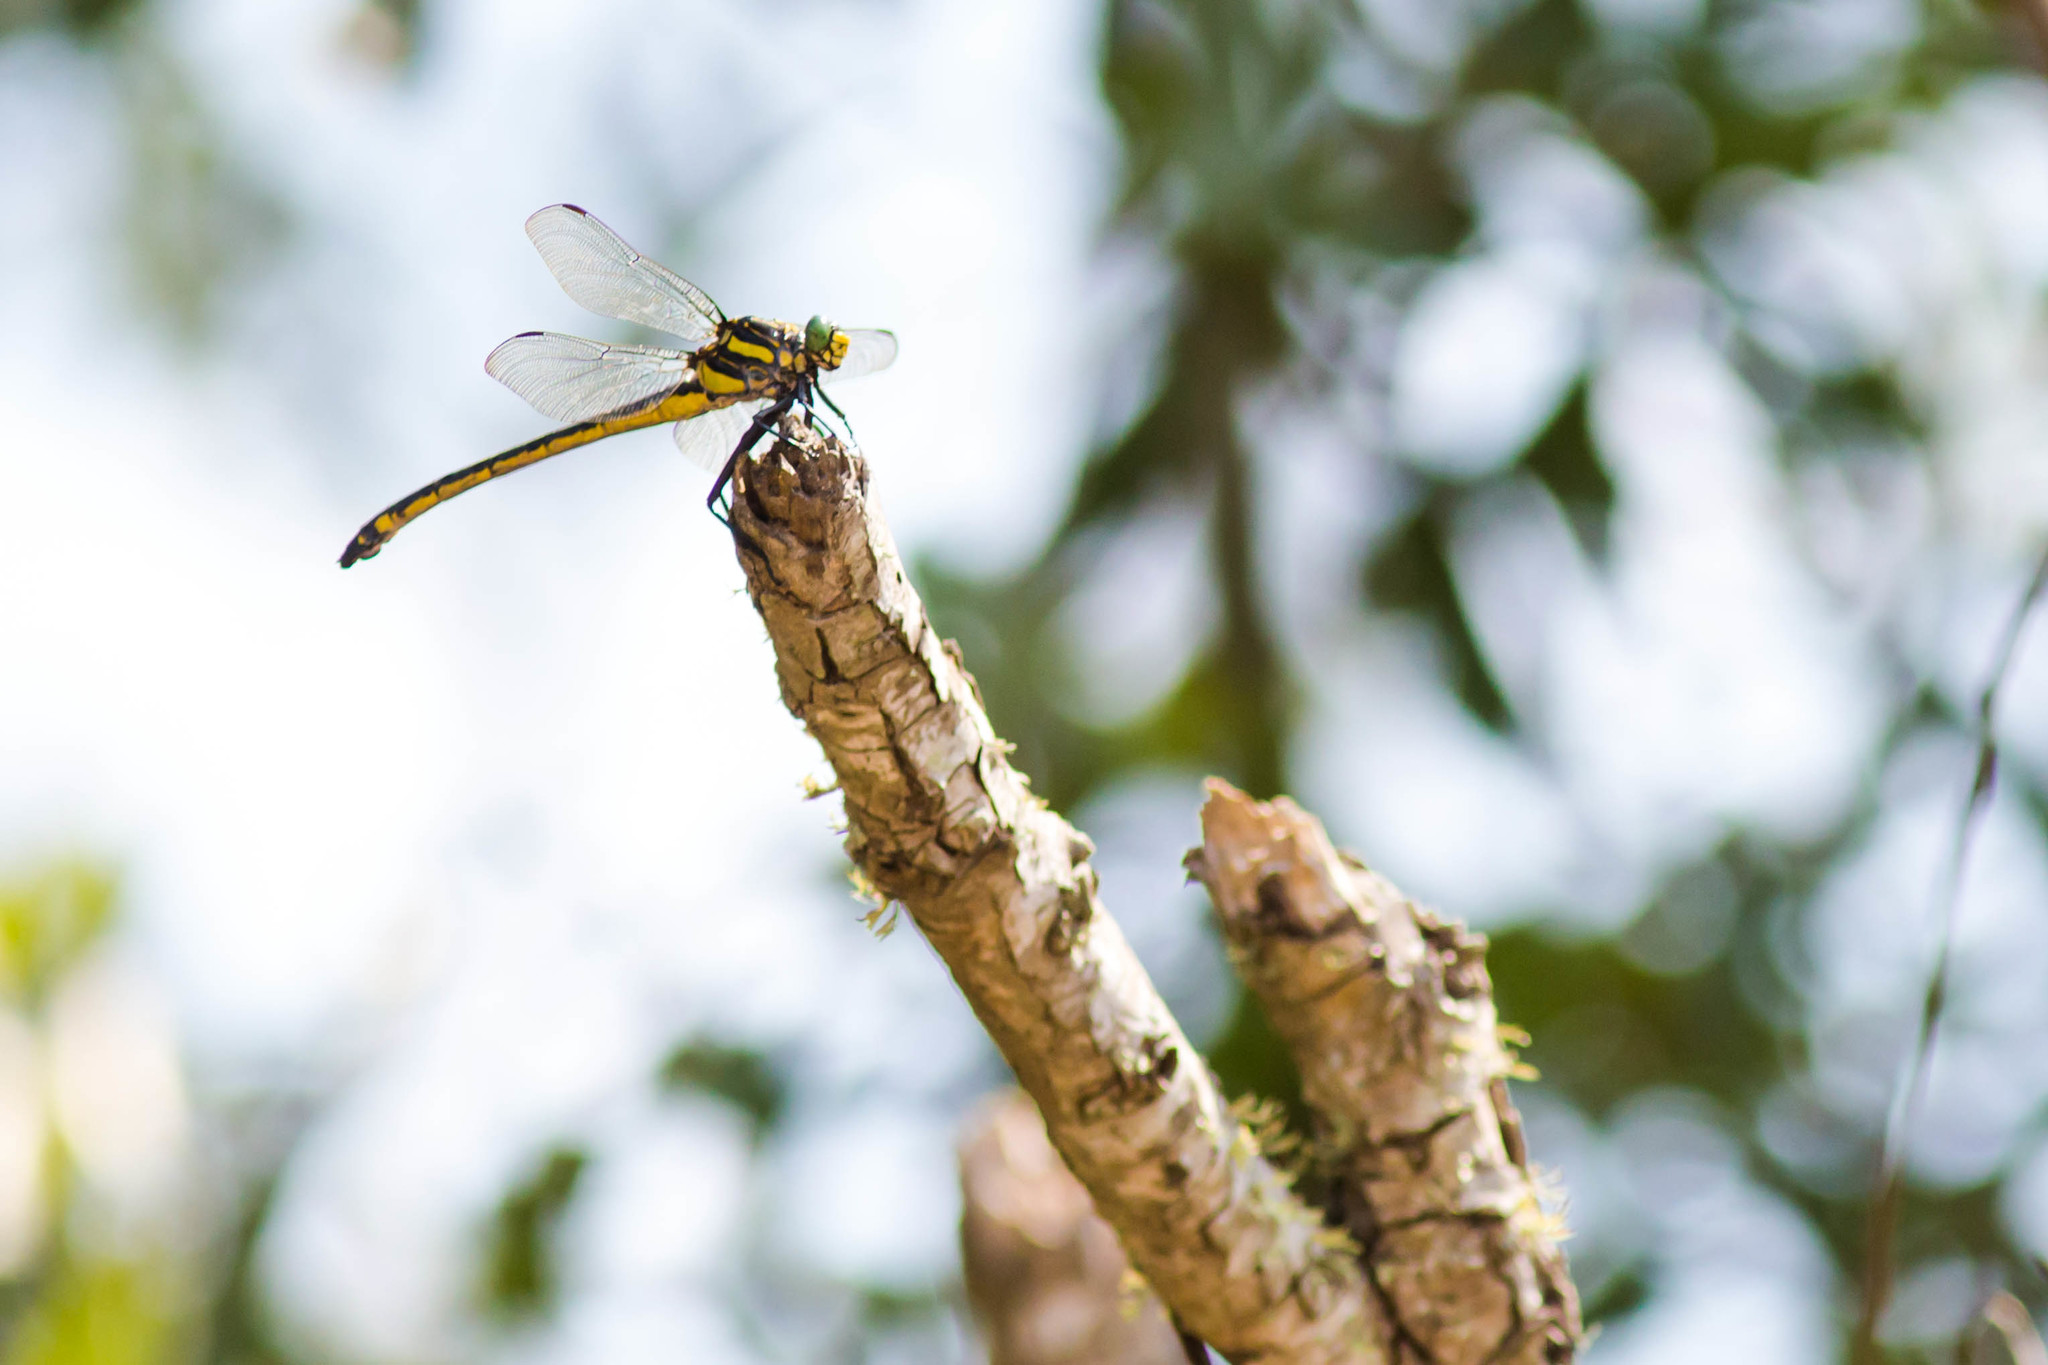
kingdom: Animalia
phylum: Arthropoda
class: Insecta
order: Odonata
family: Gomphidae
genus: Hagenius
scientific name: Hagenius brevistylus
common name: Dragonhunter
